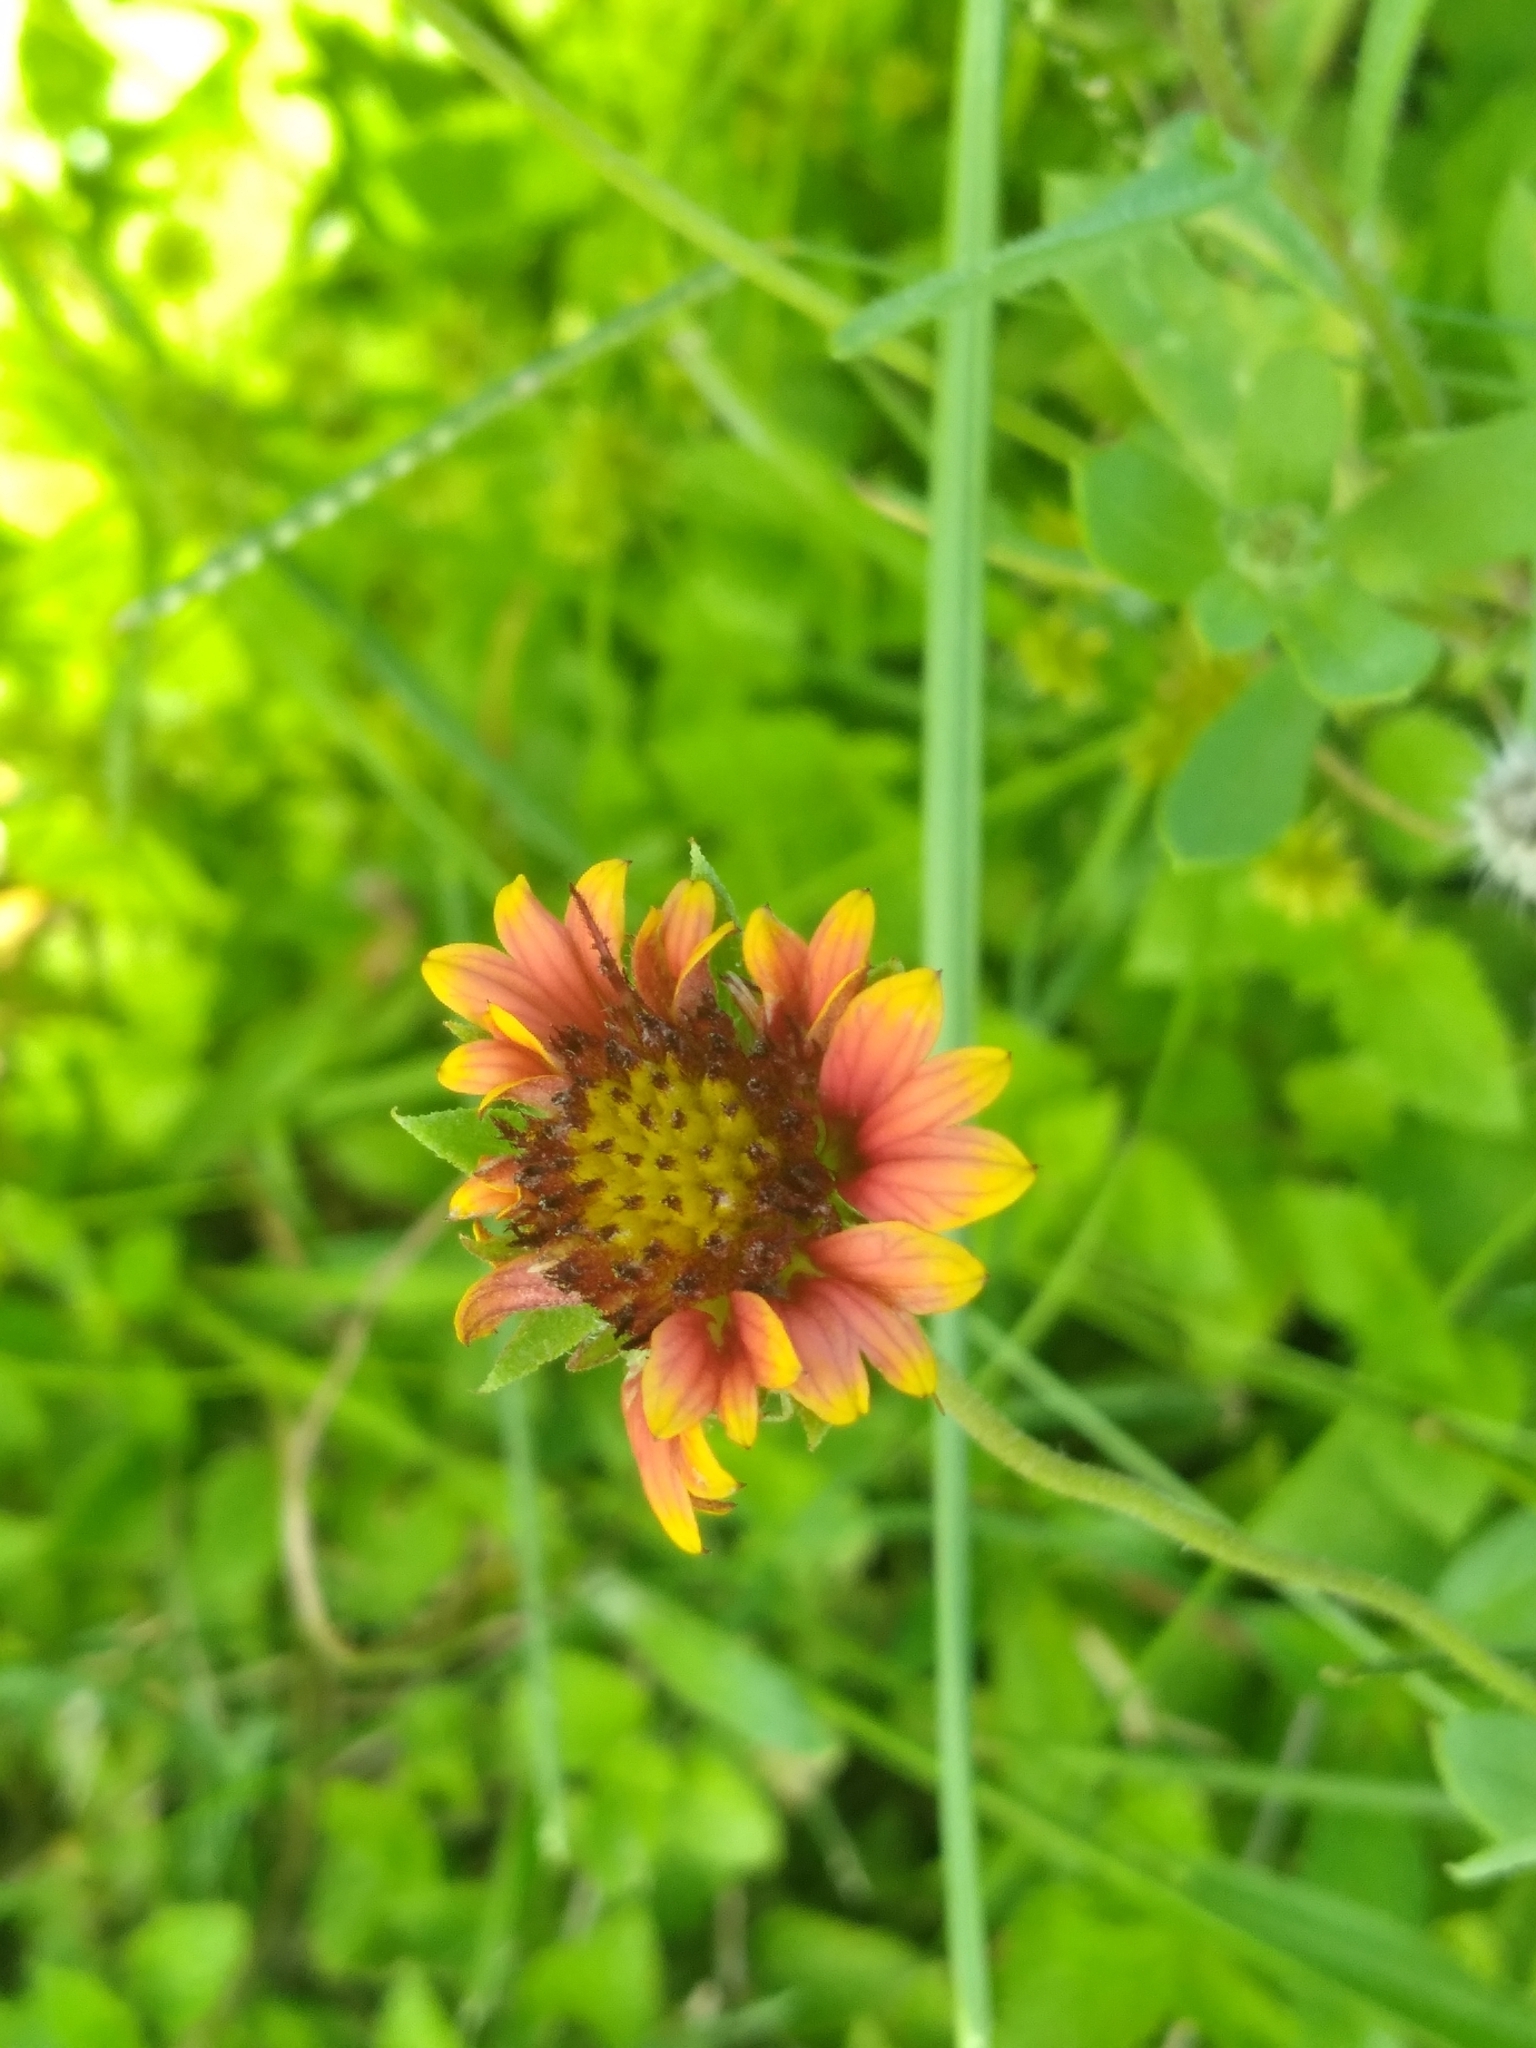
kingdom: Plantae
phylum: Tracheophyta
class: Magnoliopsida
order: Asterales
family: Asteraceae
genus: Gaillardia
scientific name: Gaillardia pulchella
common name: Firewheel
